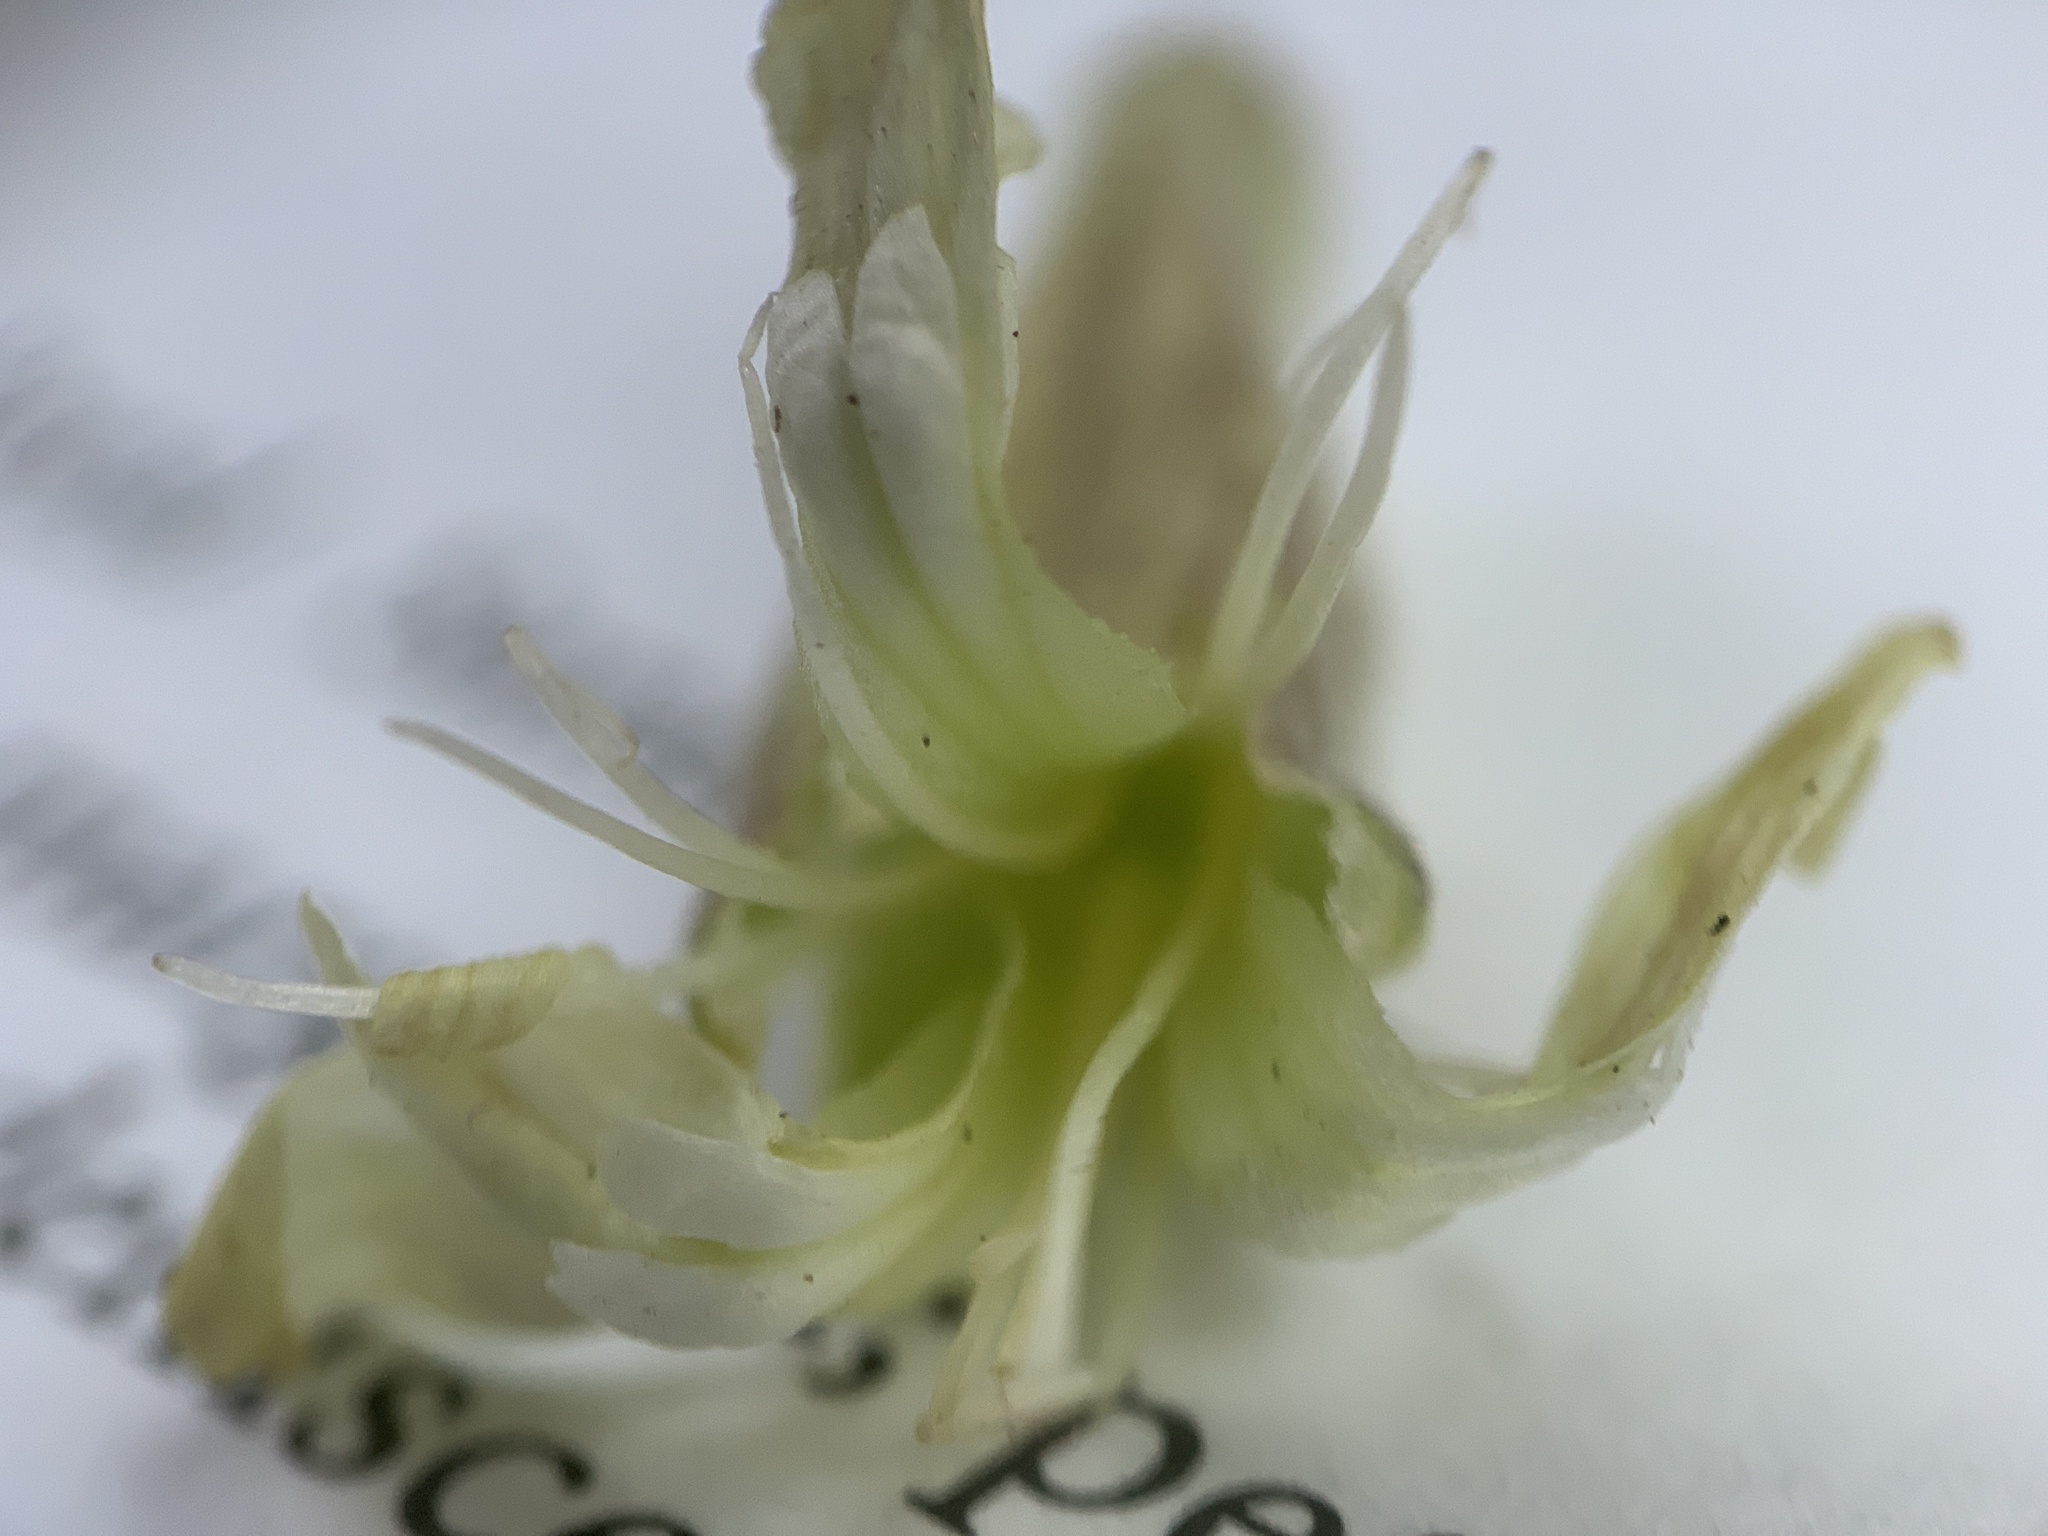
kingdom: Plantae
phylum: Tracheophyta
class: Magnoliopsida
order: Caryophyllales
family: Caryophyllaceae
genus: Silene
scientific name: Silene douglasii
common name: Douglas's catchfly
